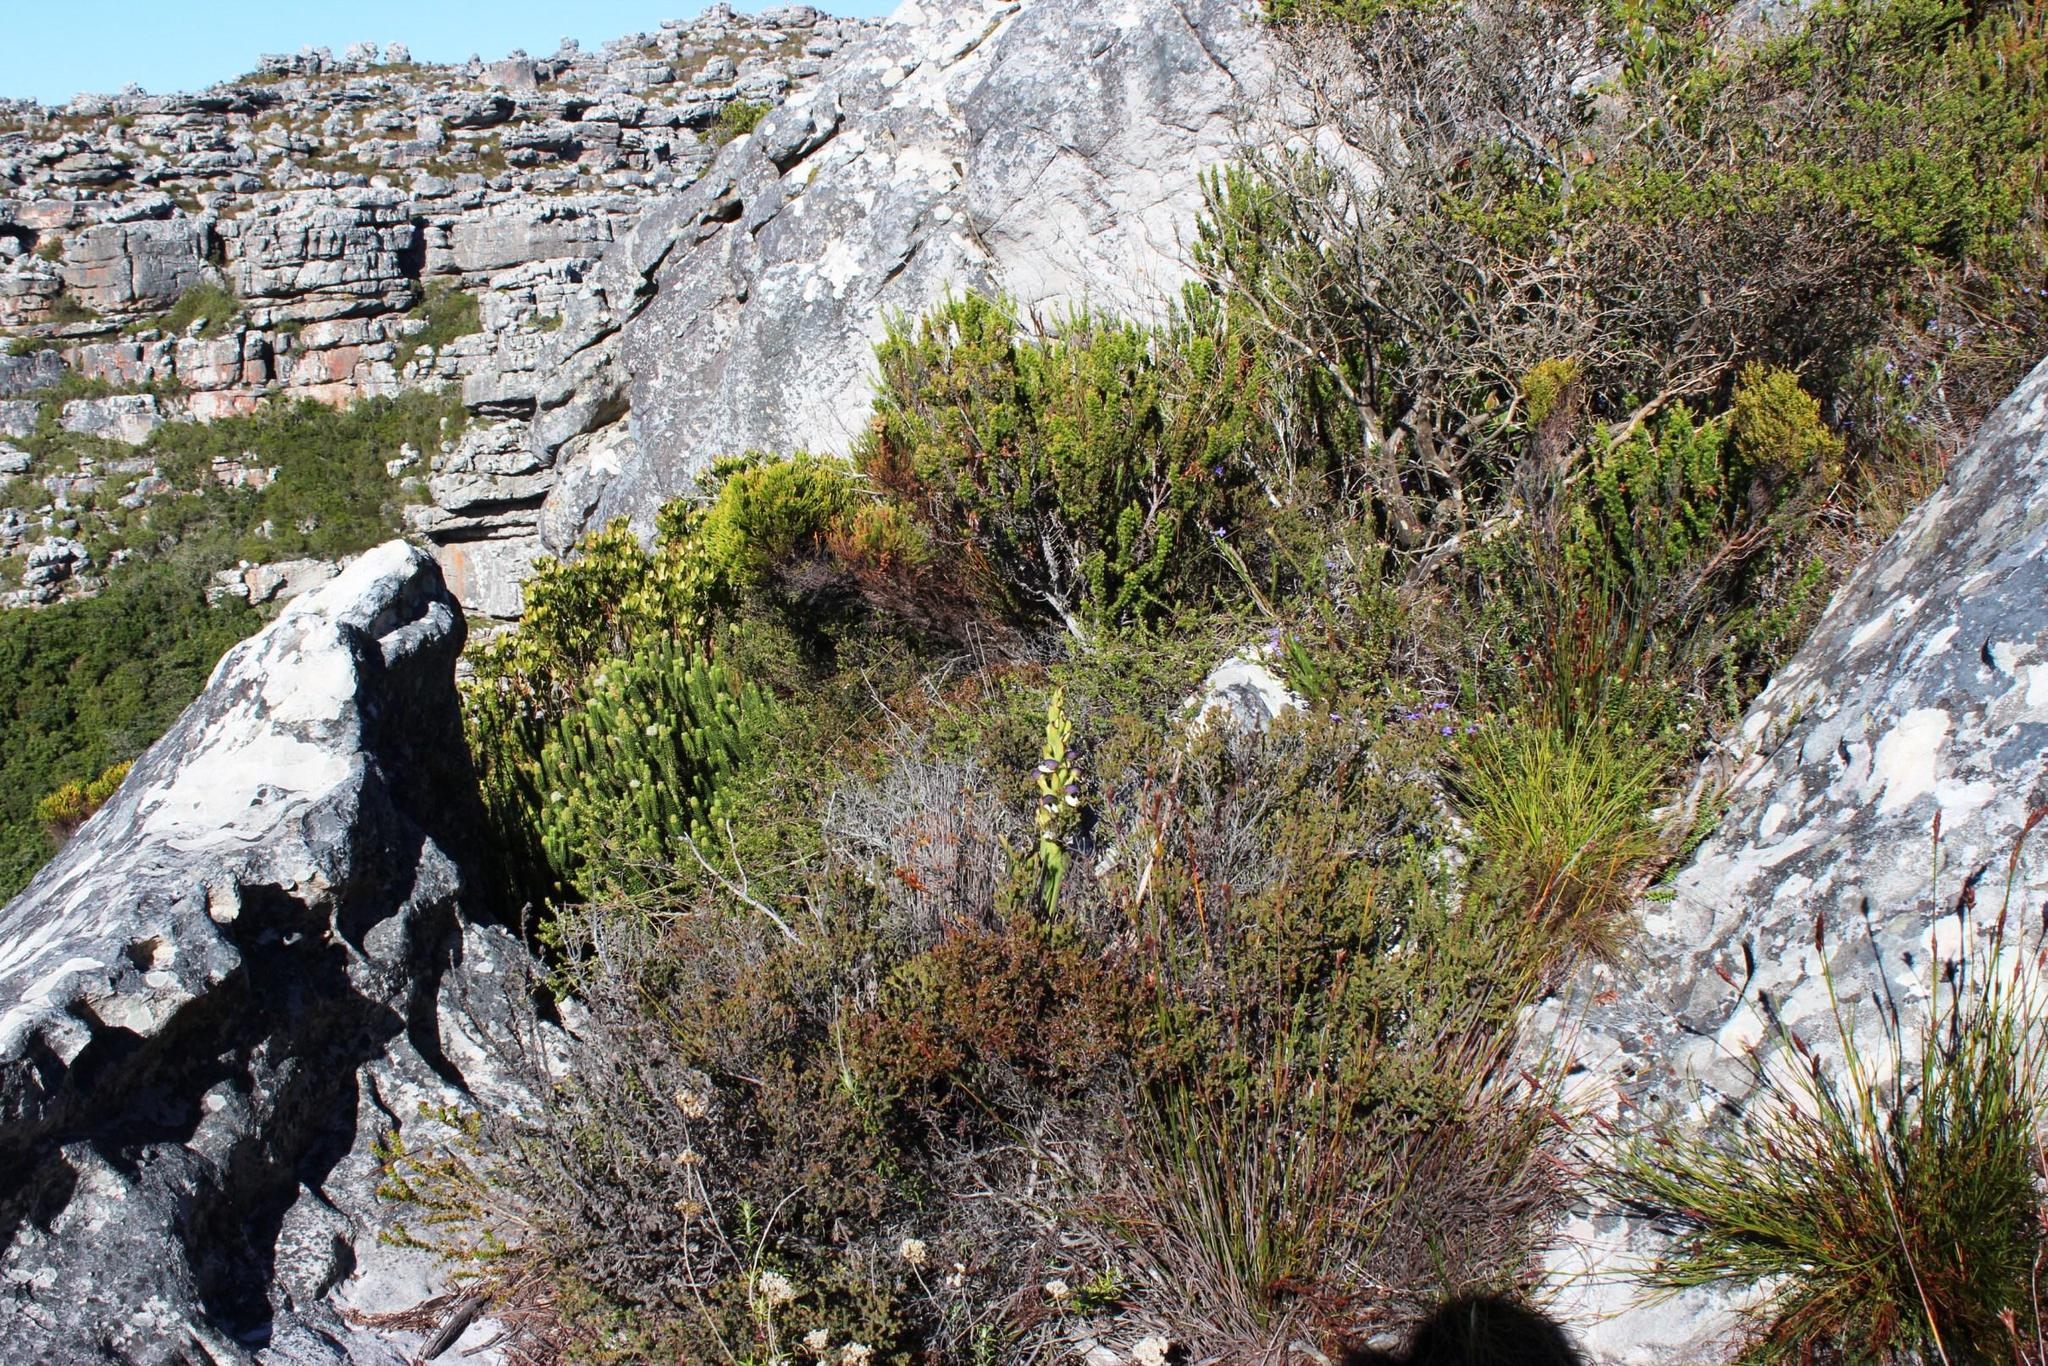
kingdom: Plantae
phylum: Tracheophyta
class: Liliopsida
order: Asparagales
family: Orchidaceae
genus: Disa
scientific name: Disa cornuta
